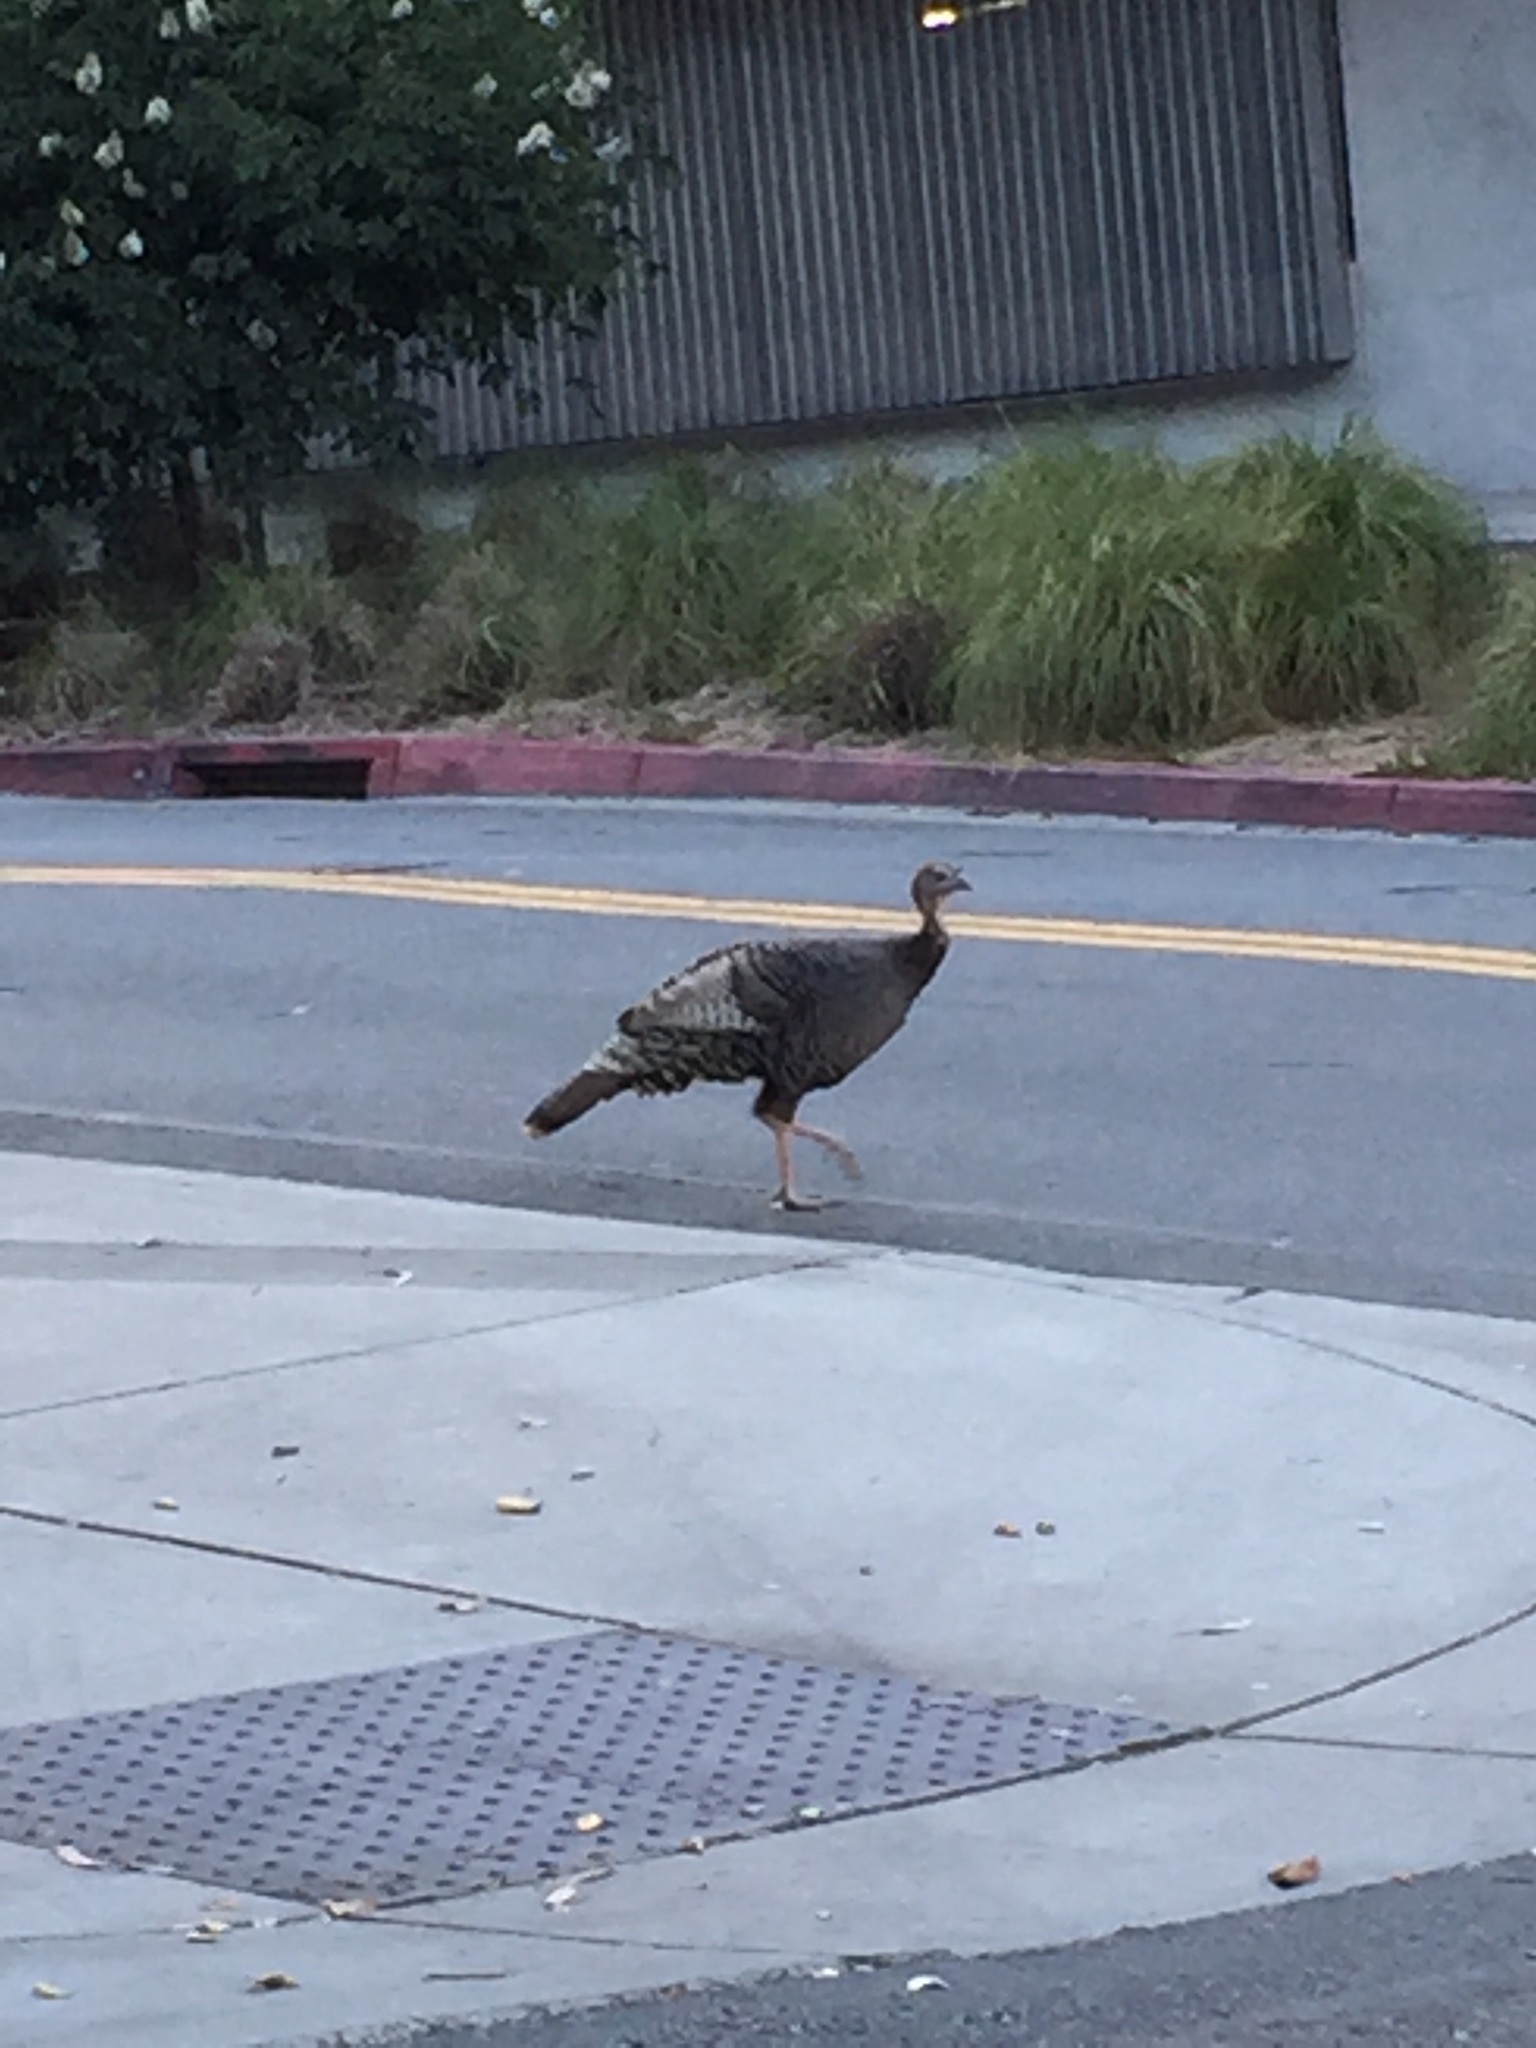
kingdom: Animalia
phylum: Chordata
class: Aves
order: Galliformes
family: Phasianidae
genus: Meleagris
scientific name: Meleagris gallopavo
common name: Wild turkey
